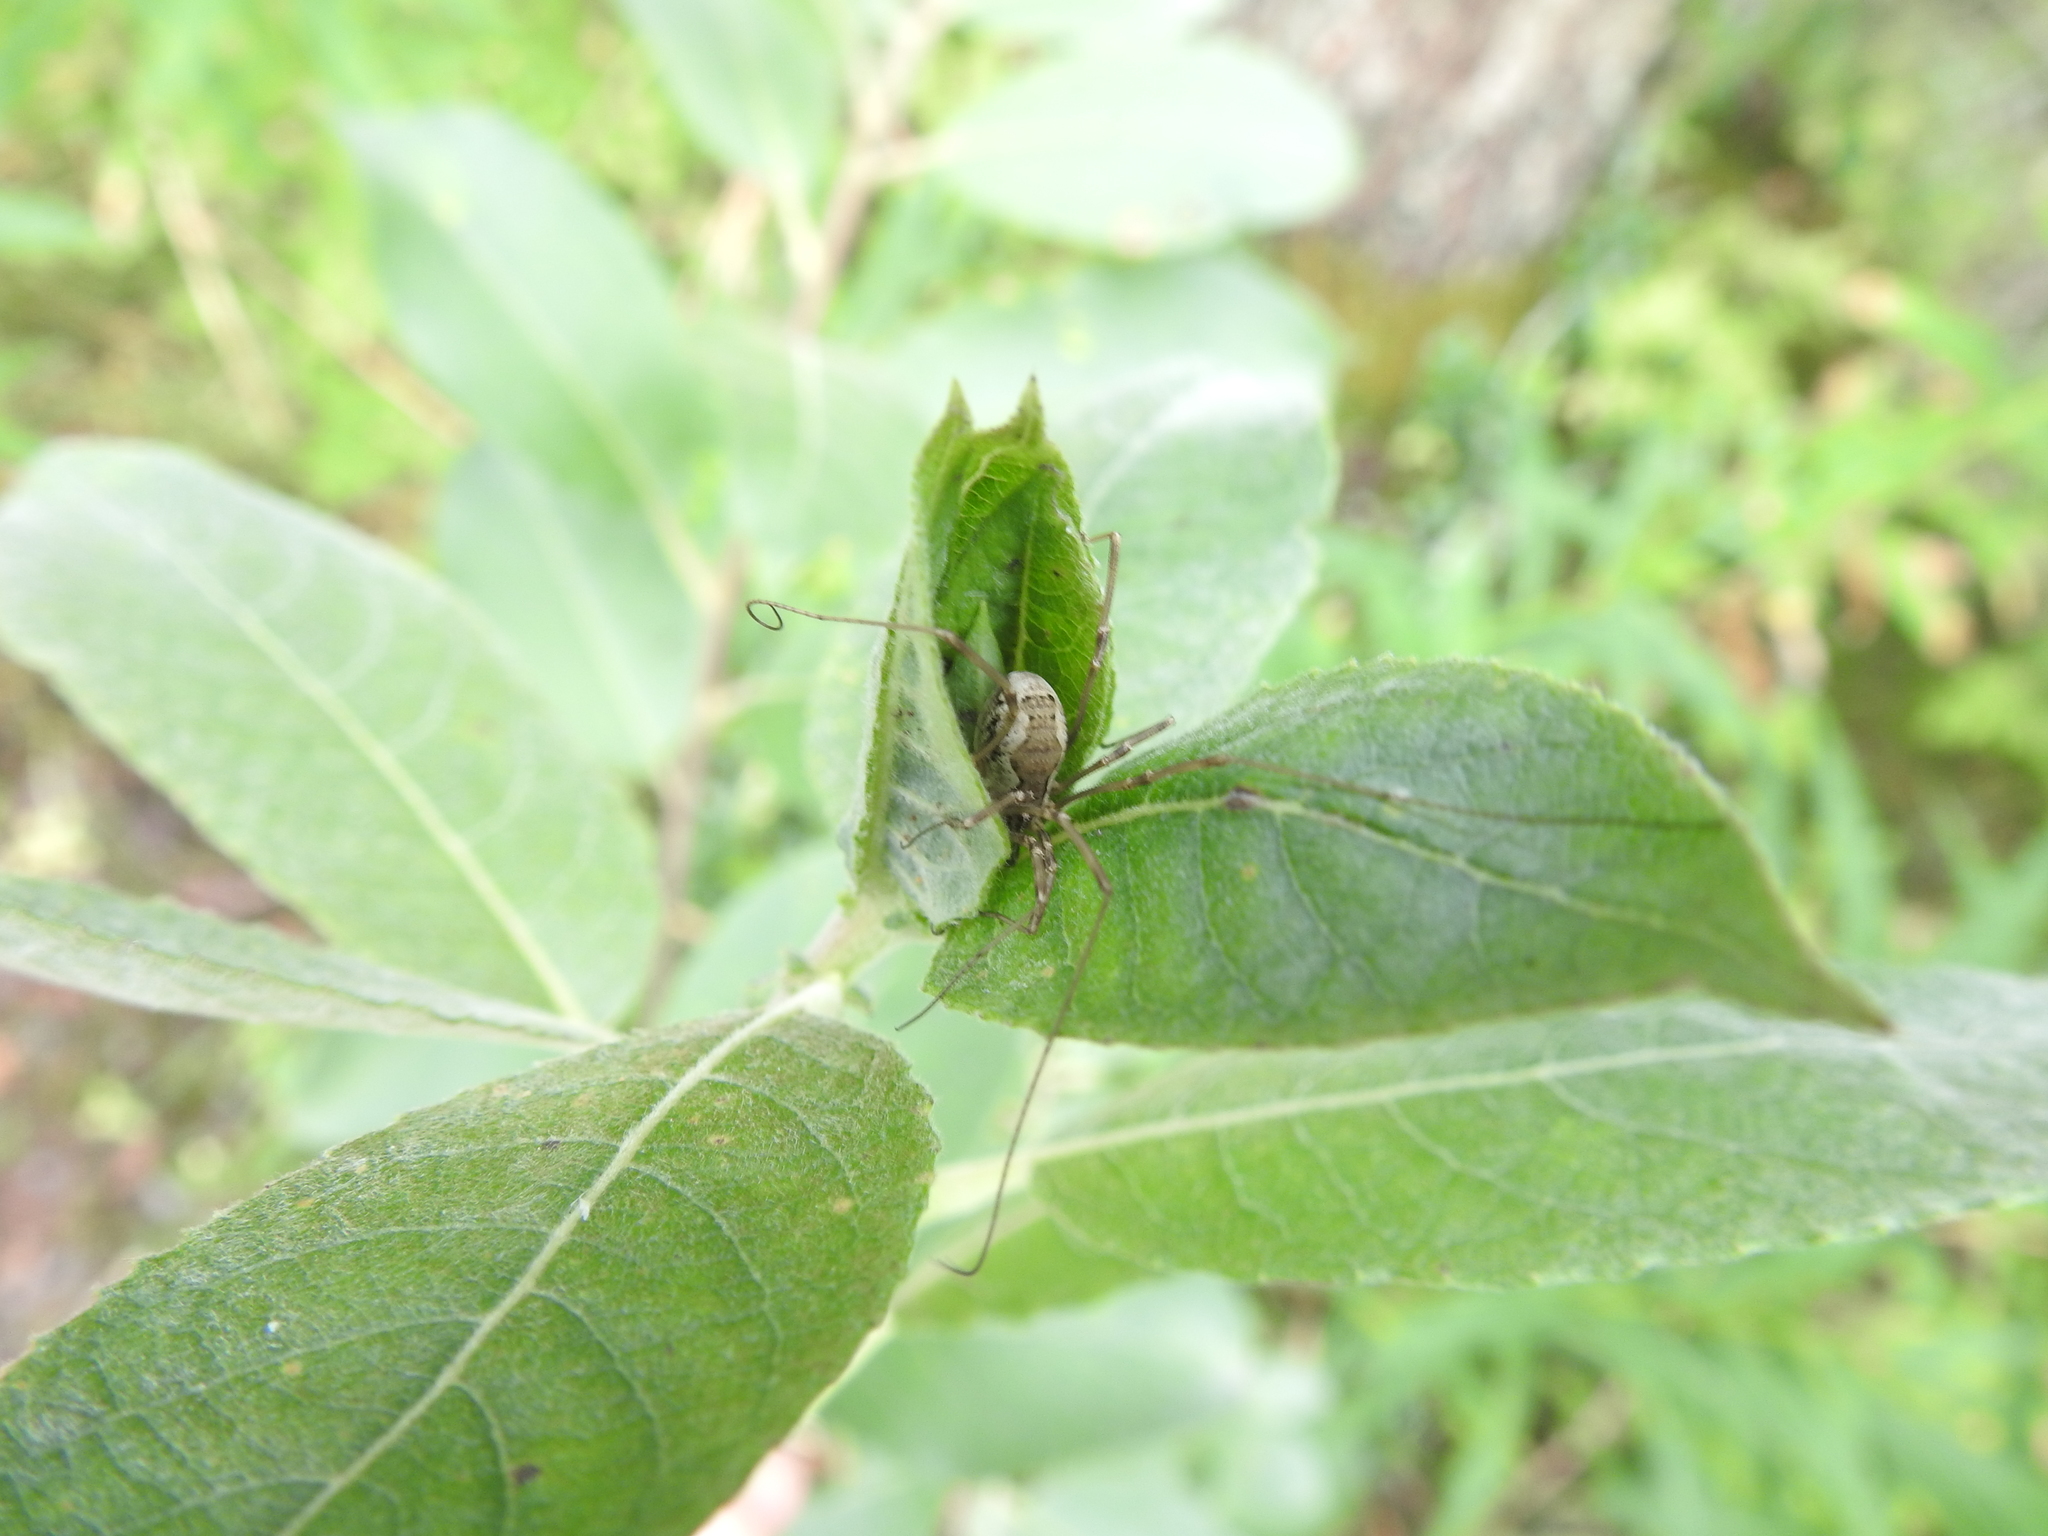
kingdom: Animalia
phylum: Arthropoda
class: Arachnida
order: Opiliones
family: Phalangiidae
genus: Mitopus
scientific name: Mitopus morio
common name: Saddleback harvestman
